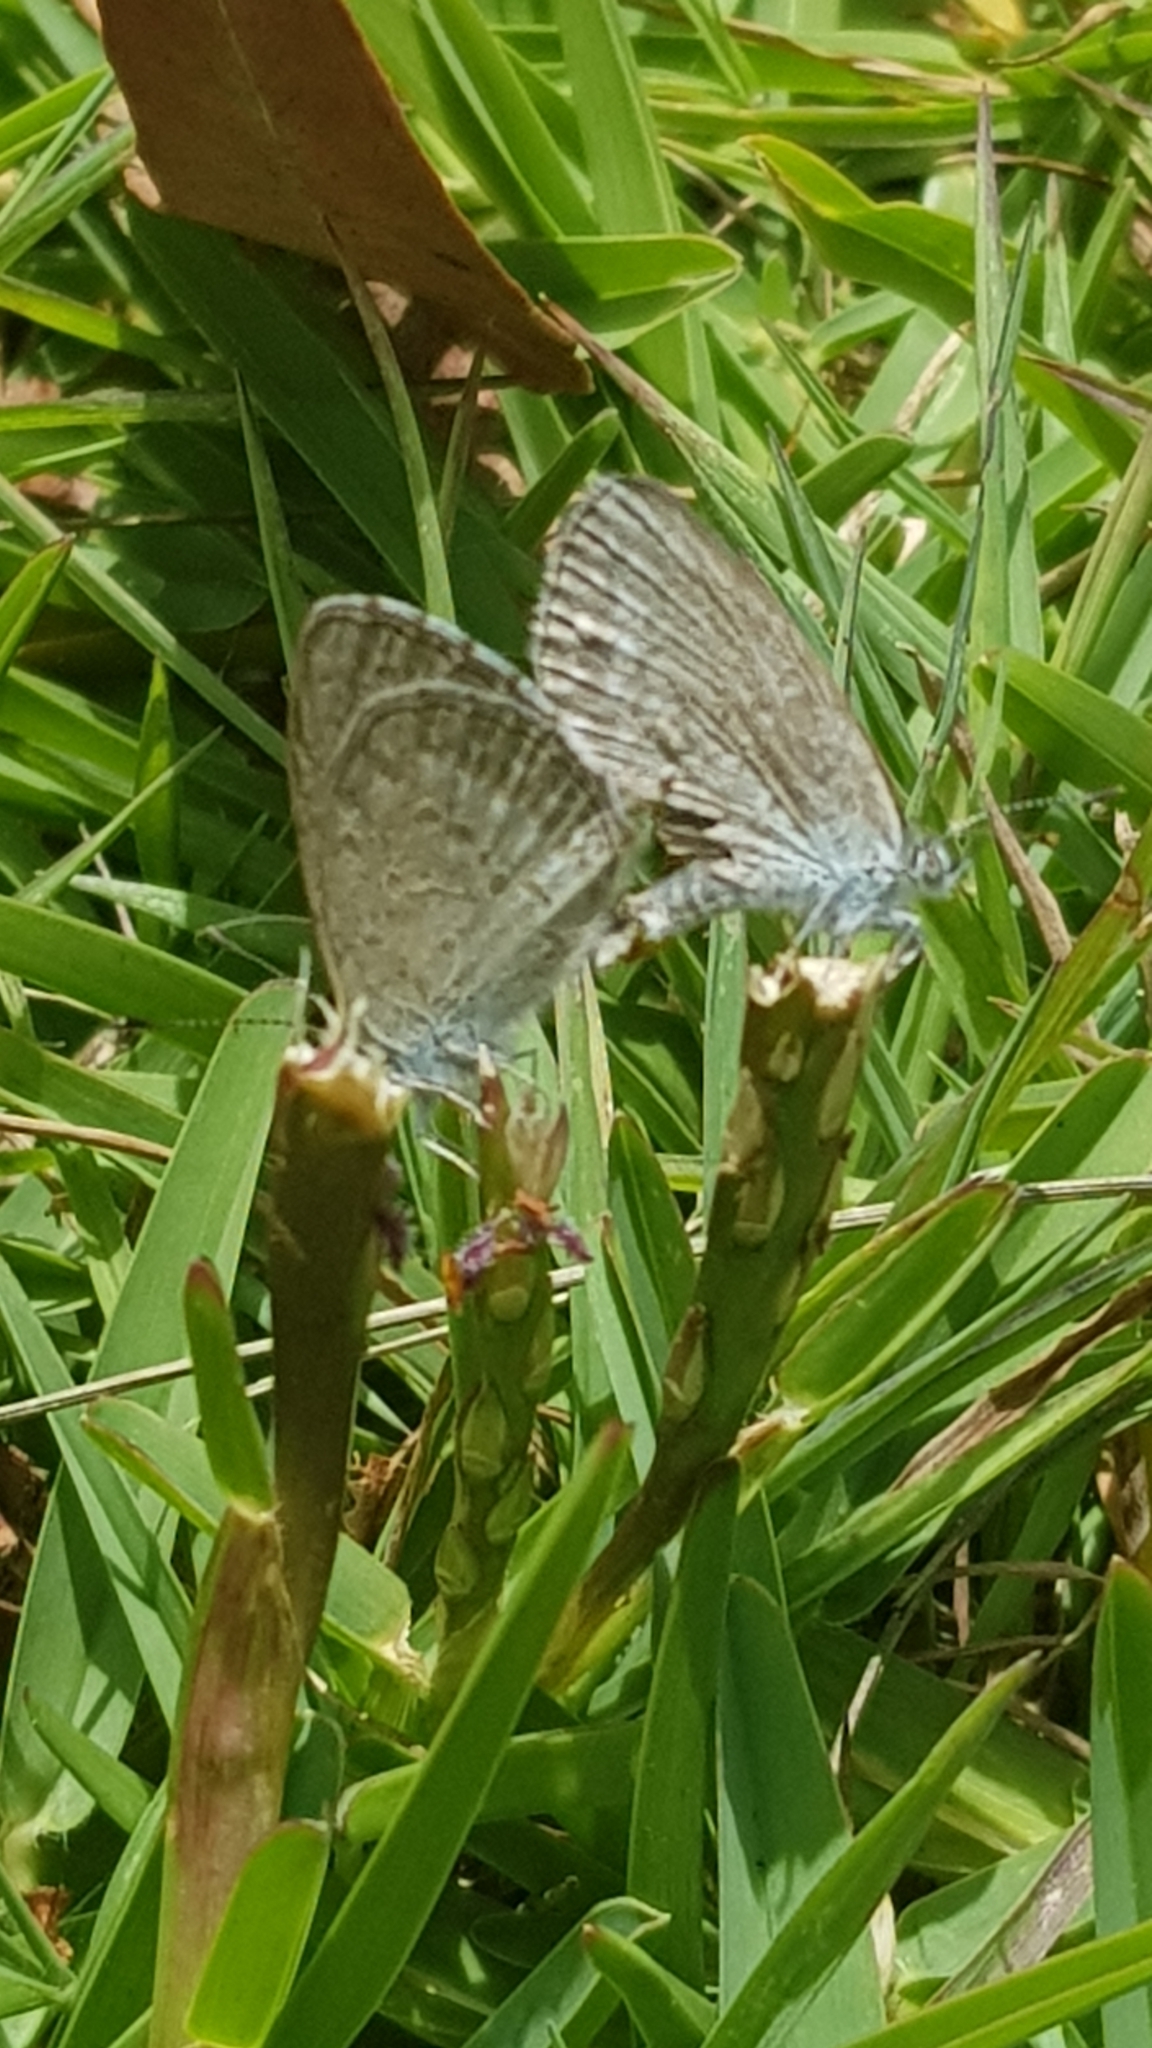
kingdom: Animalia
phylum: Arthropoda
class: Insecta
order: Lepidoptera
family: Lycaenidae
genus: Zizina
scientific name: Zizina labradus
